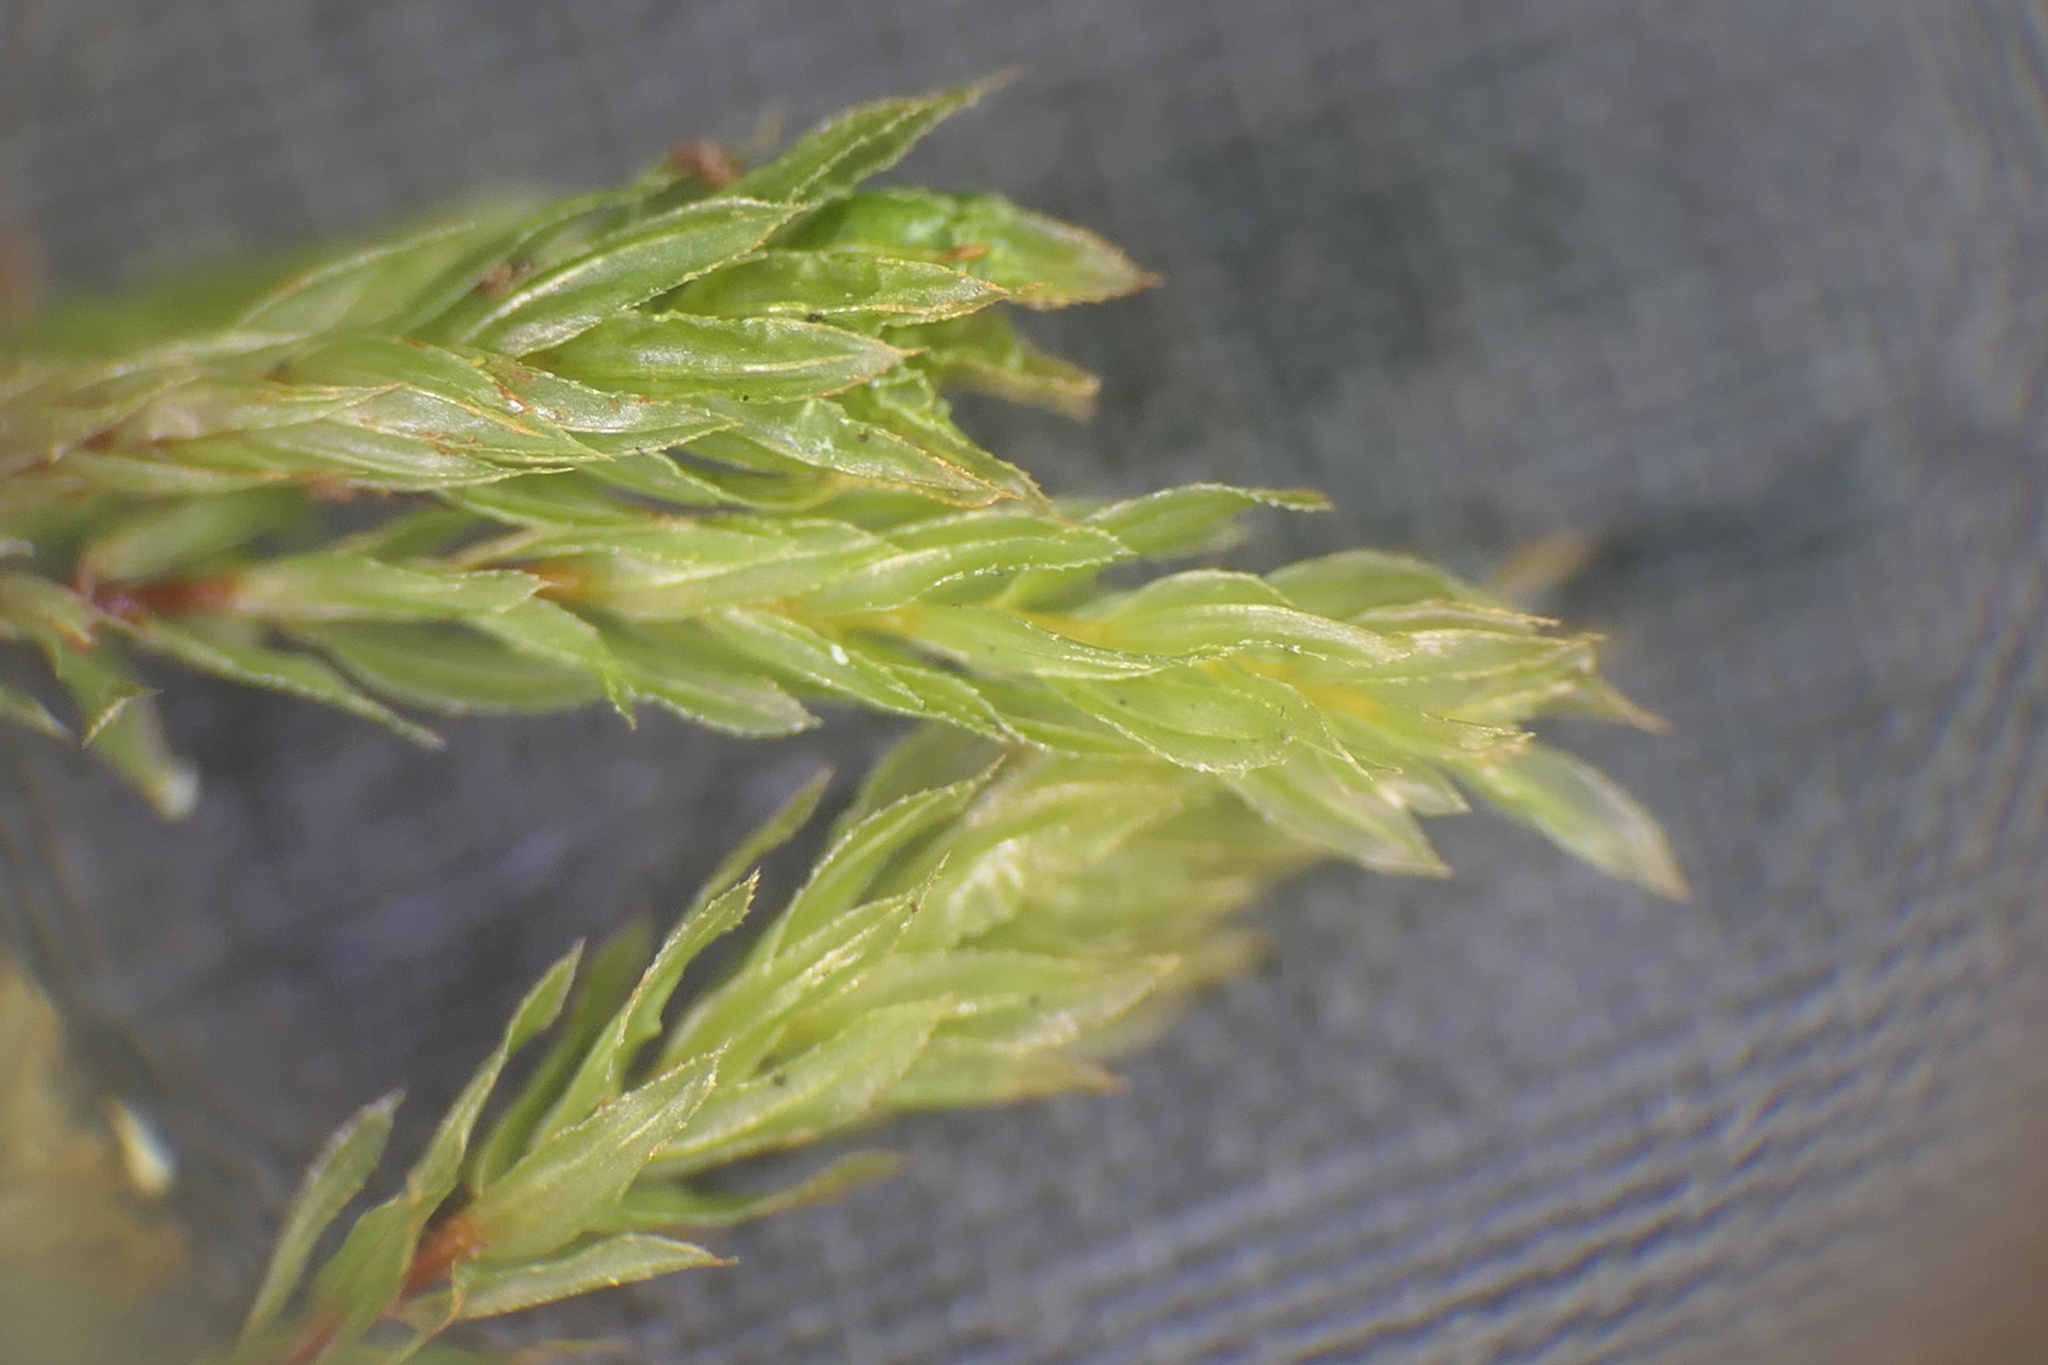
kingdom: Plantae
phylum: Bryophyta
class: Bryopsida
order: Bryales
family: Mniaceae
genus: Mnium
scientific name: Mnium hornum
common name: Swan's-neck leafy moss
